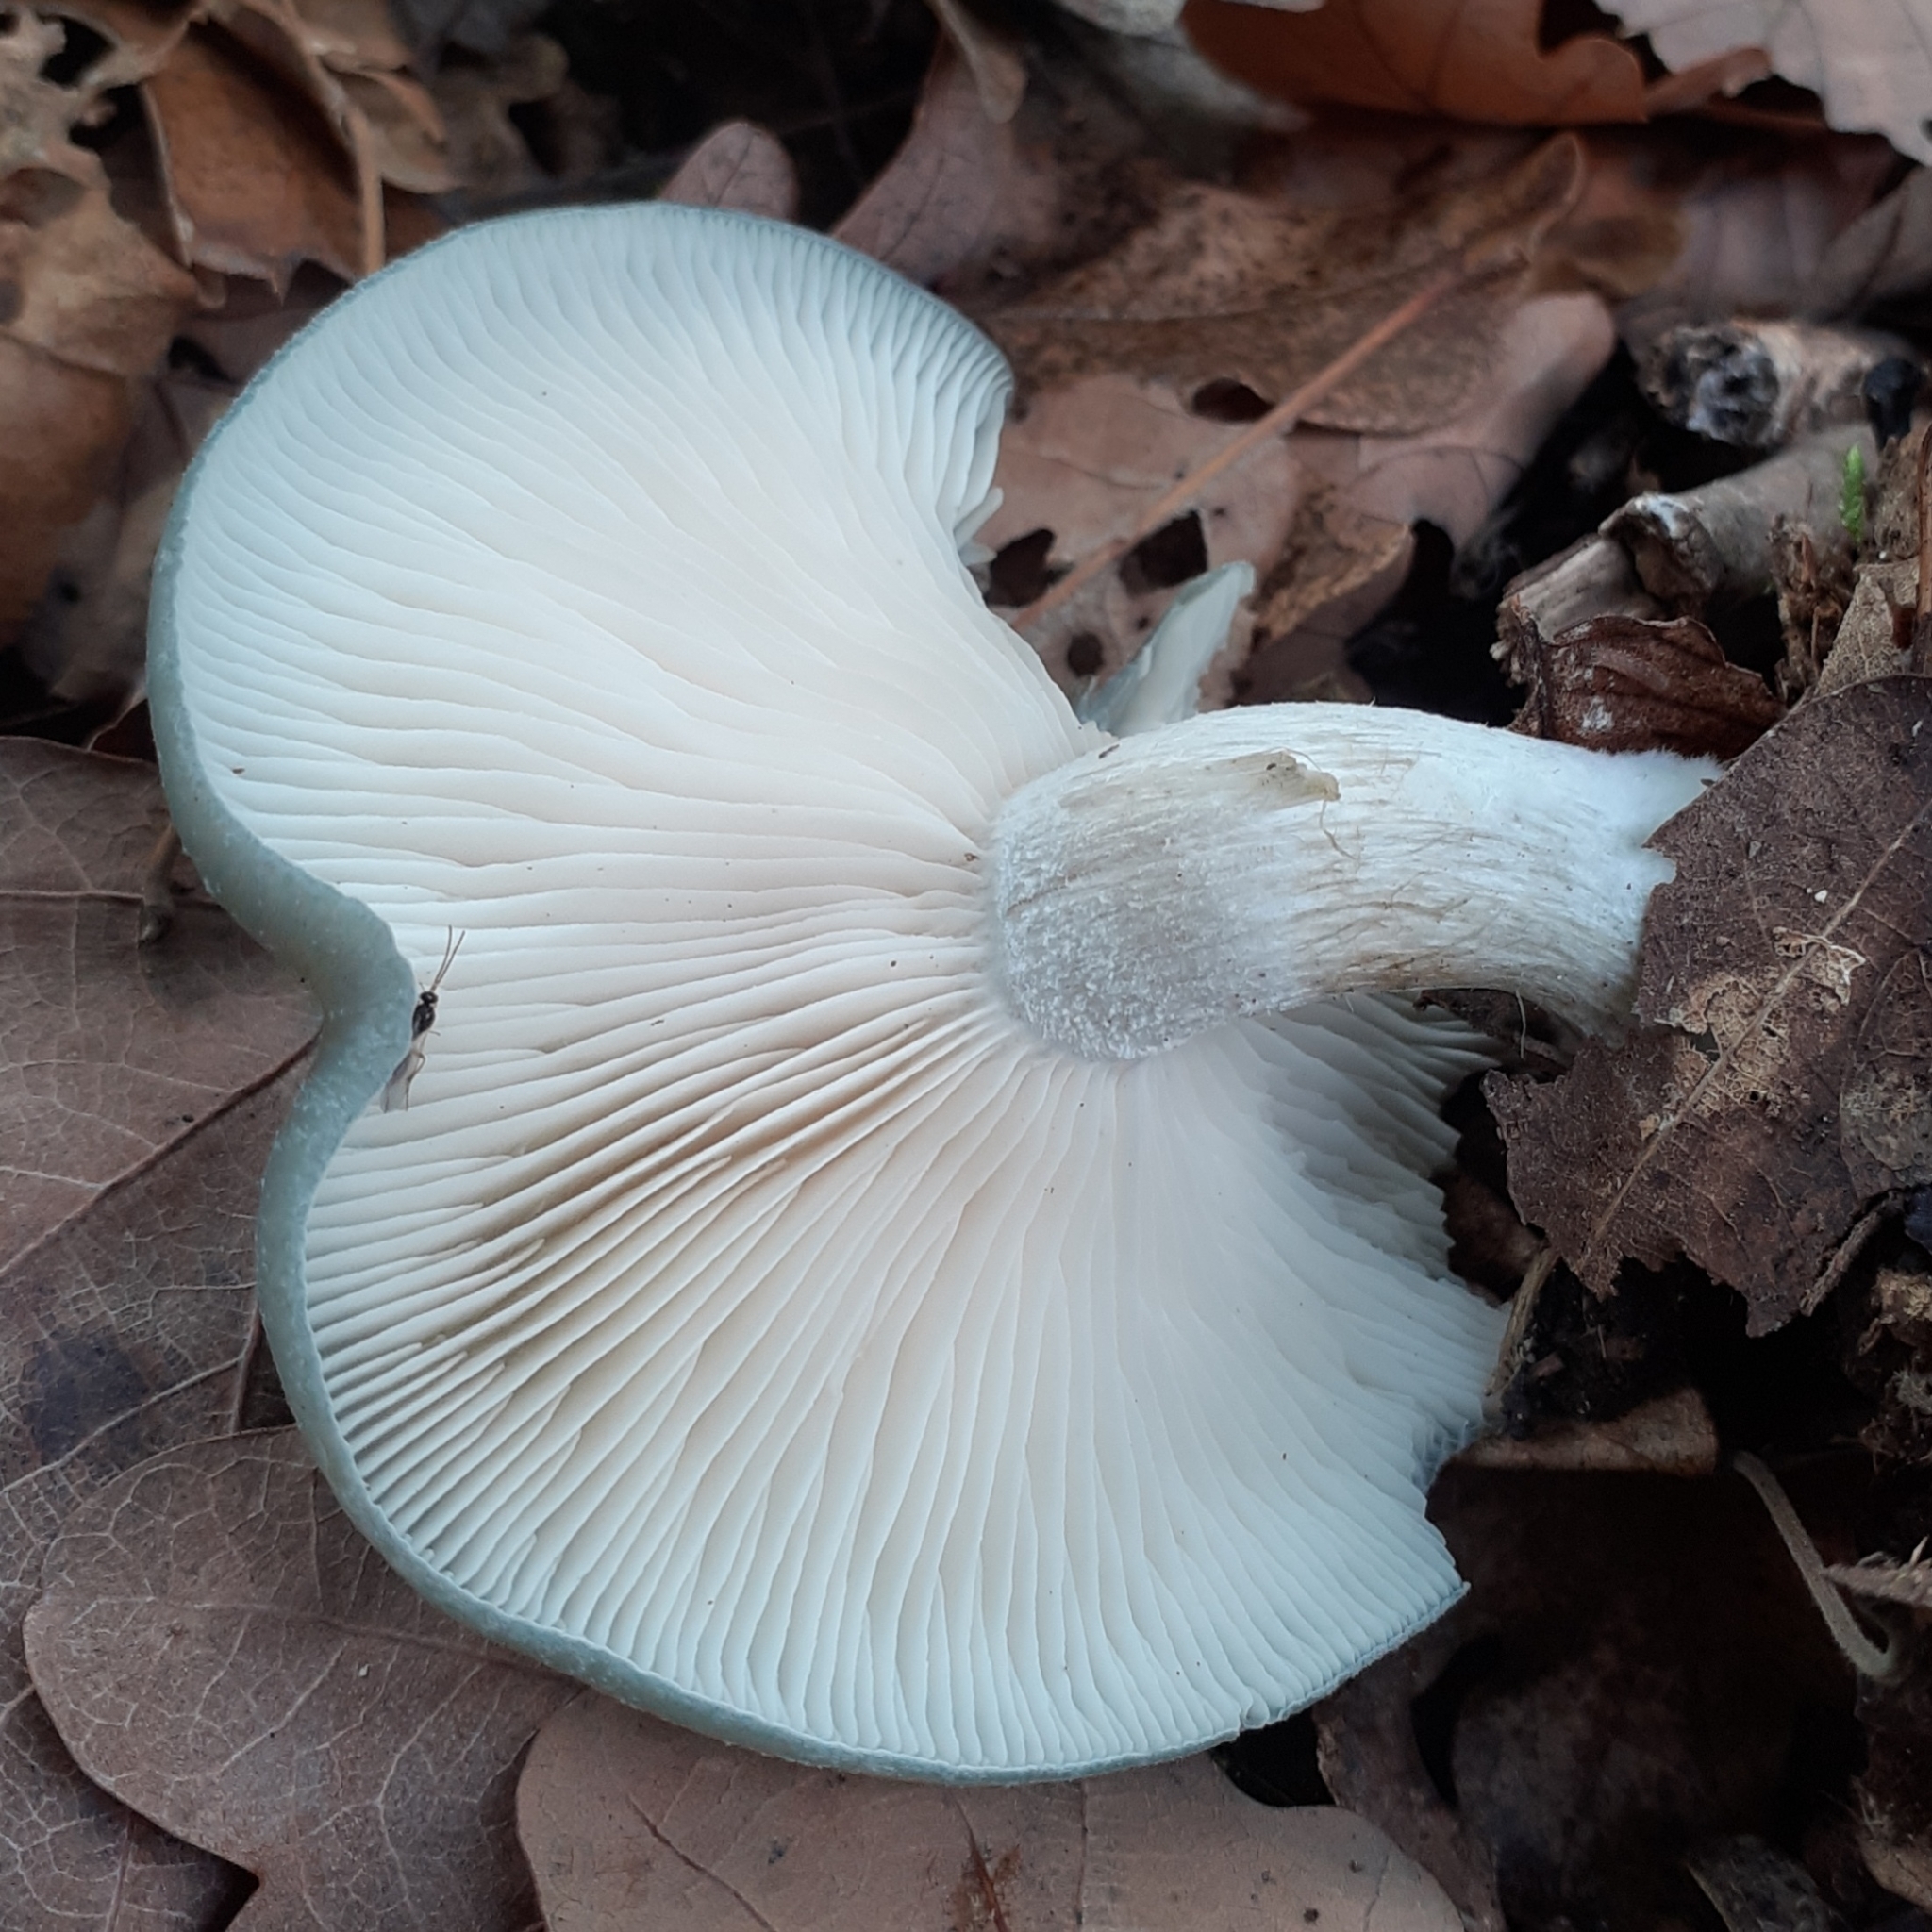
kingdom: Fungi
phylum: Basidiomycota
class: Agaricomycetes
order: Agaricales
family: Tricholomataceae
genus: Collybia
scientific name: Collybia
